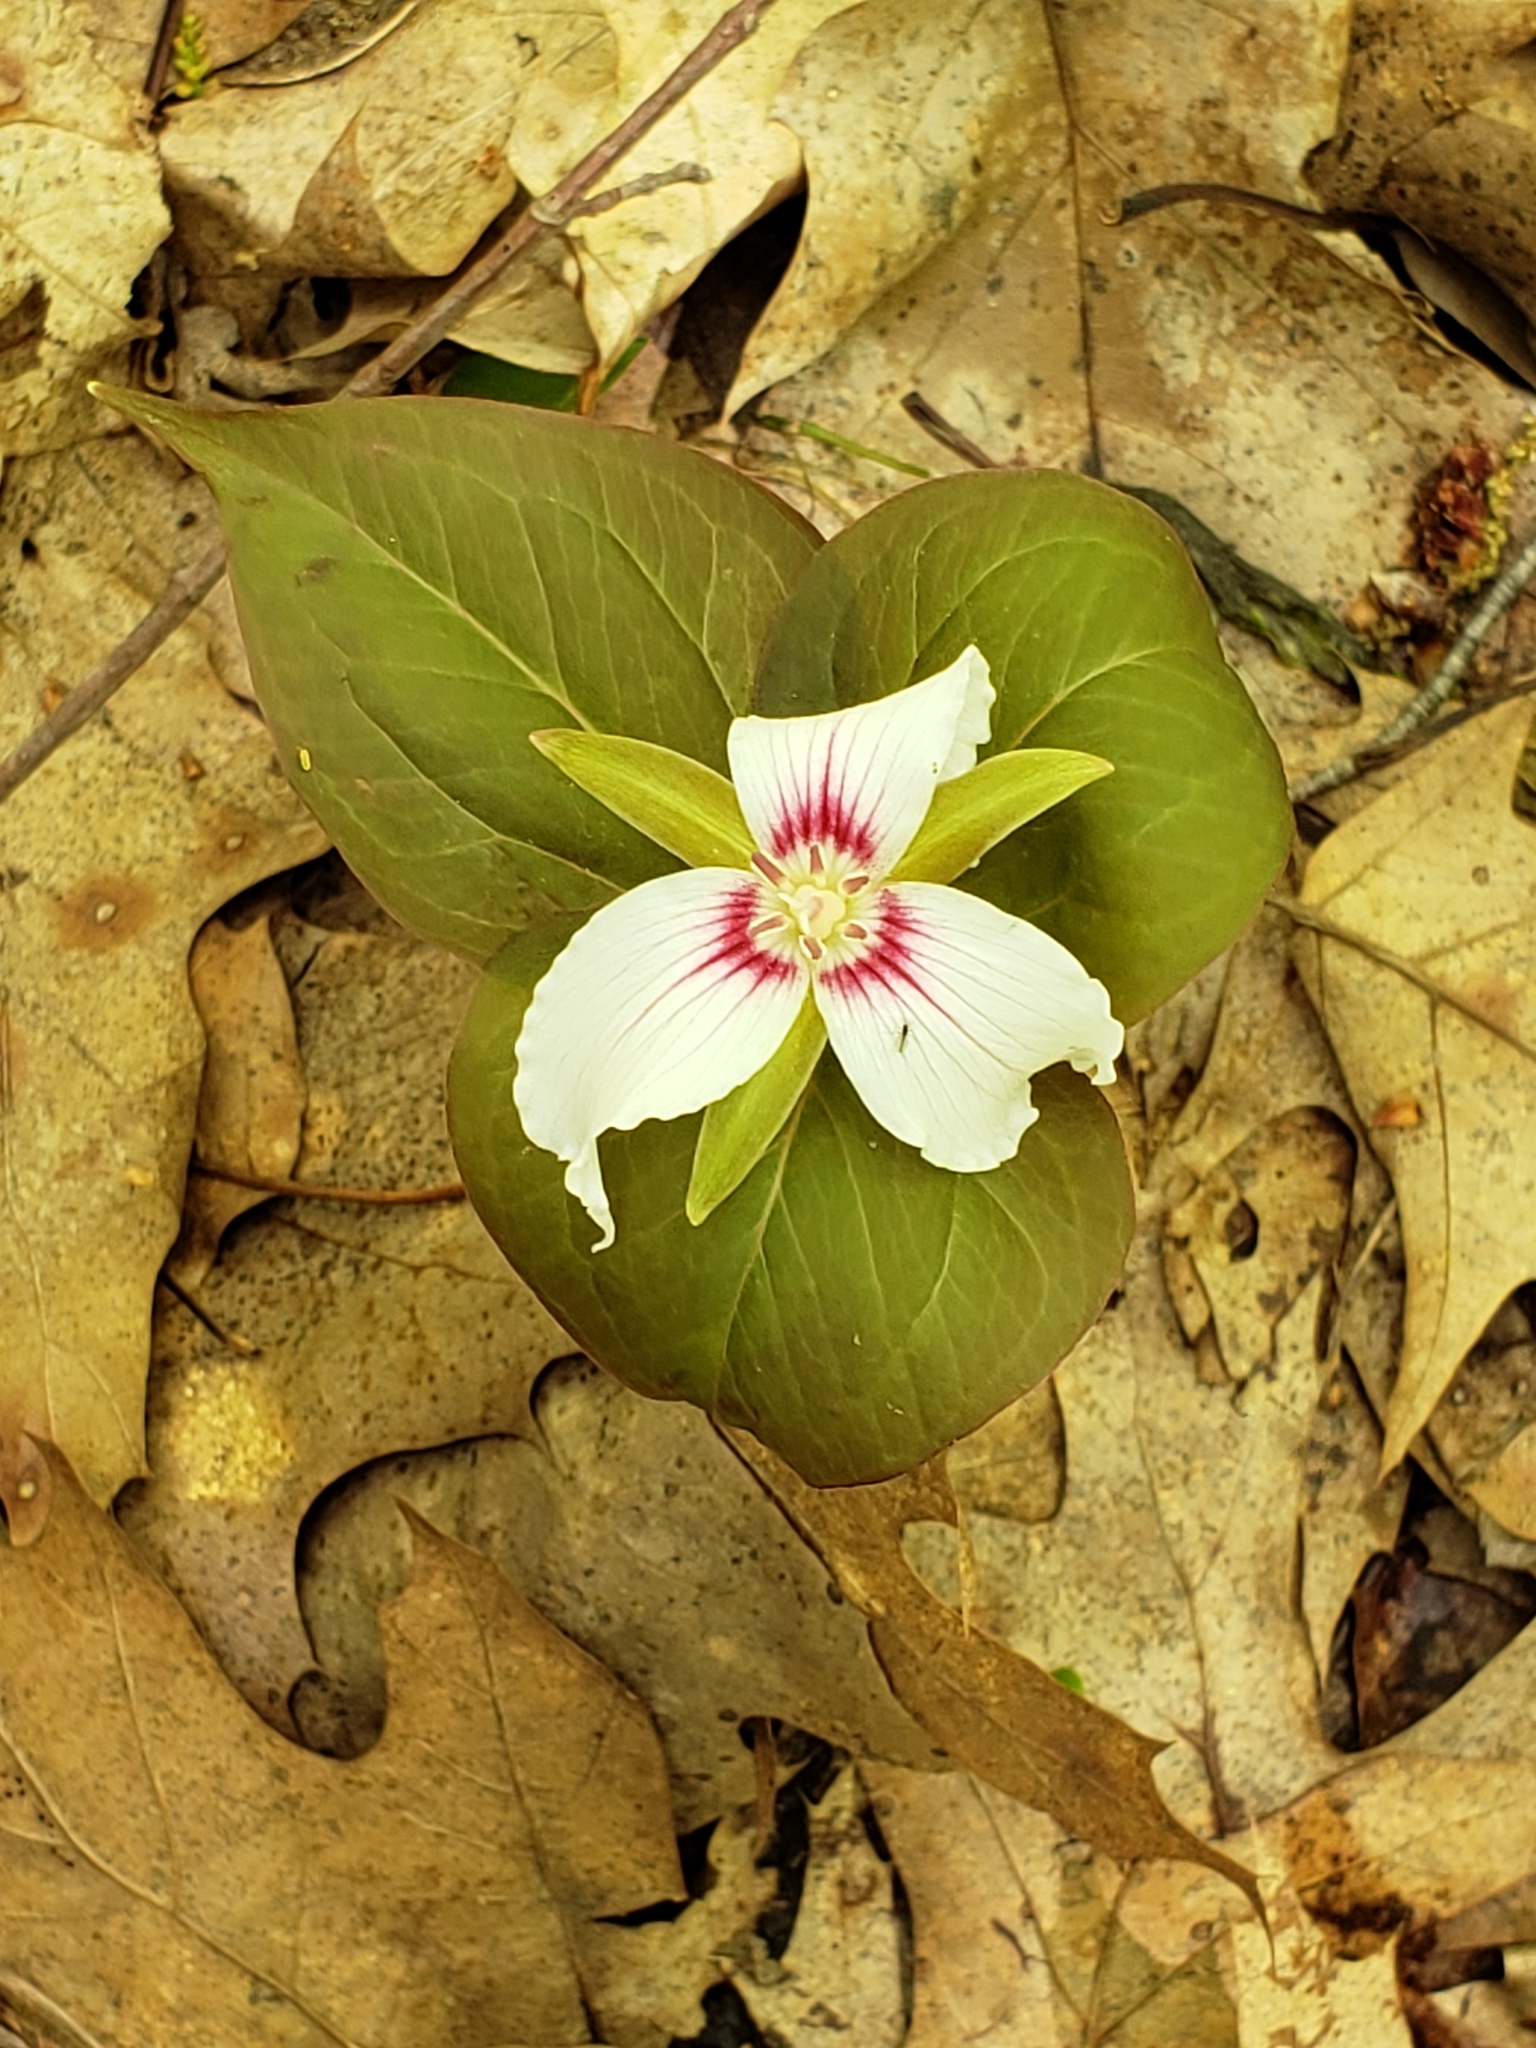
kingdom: Plantae
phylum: Tracheophyta
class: Liliopsida
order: Liliales
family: Melanthiaceae
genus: Trillium
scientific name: Trillium undulatum
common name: Paint trillium
